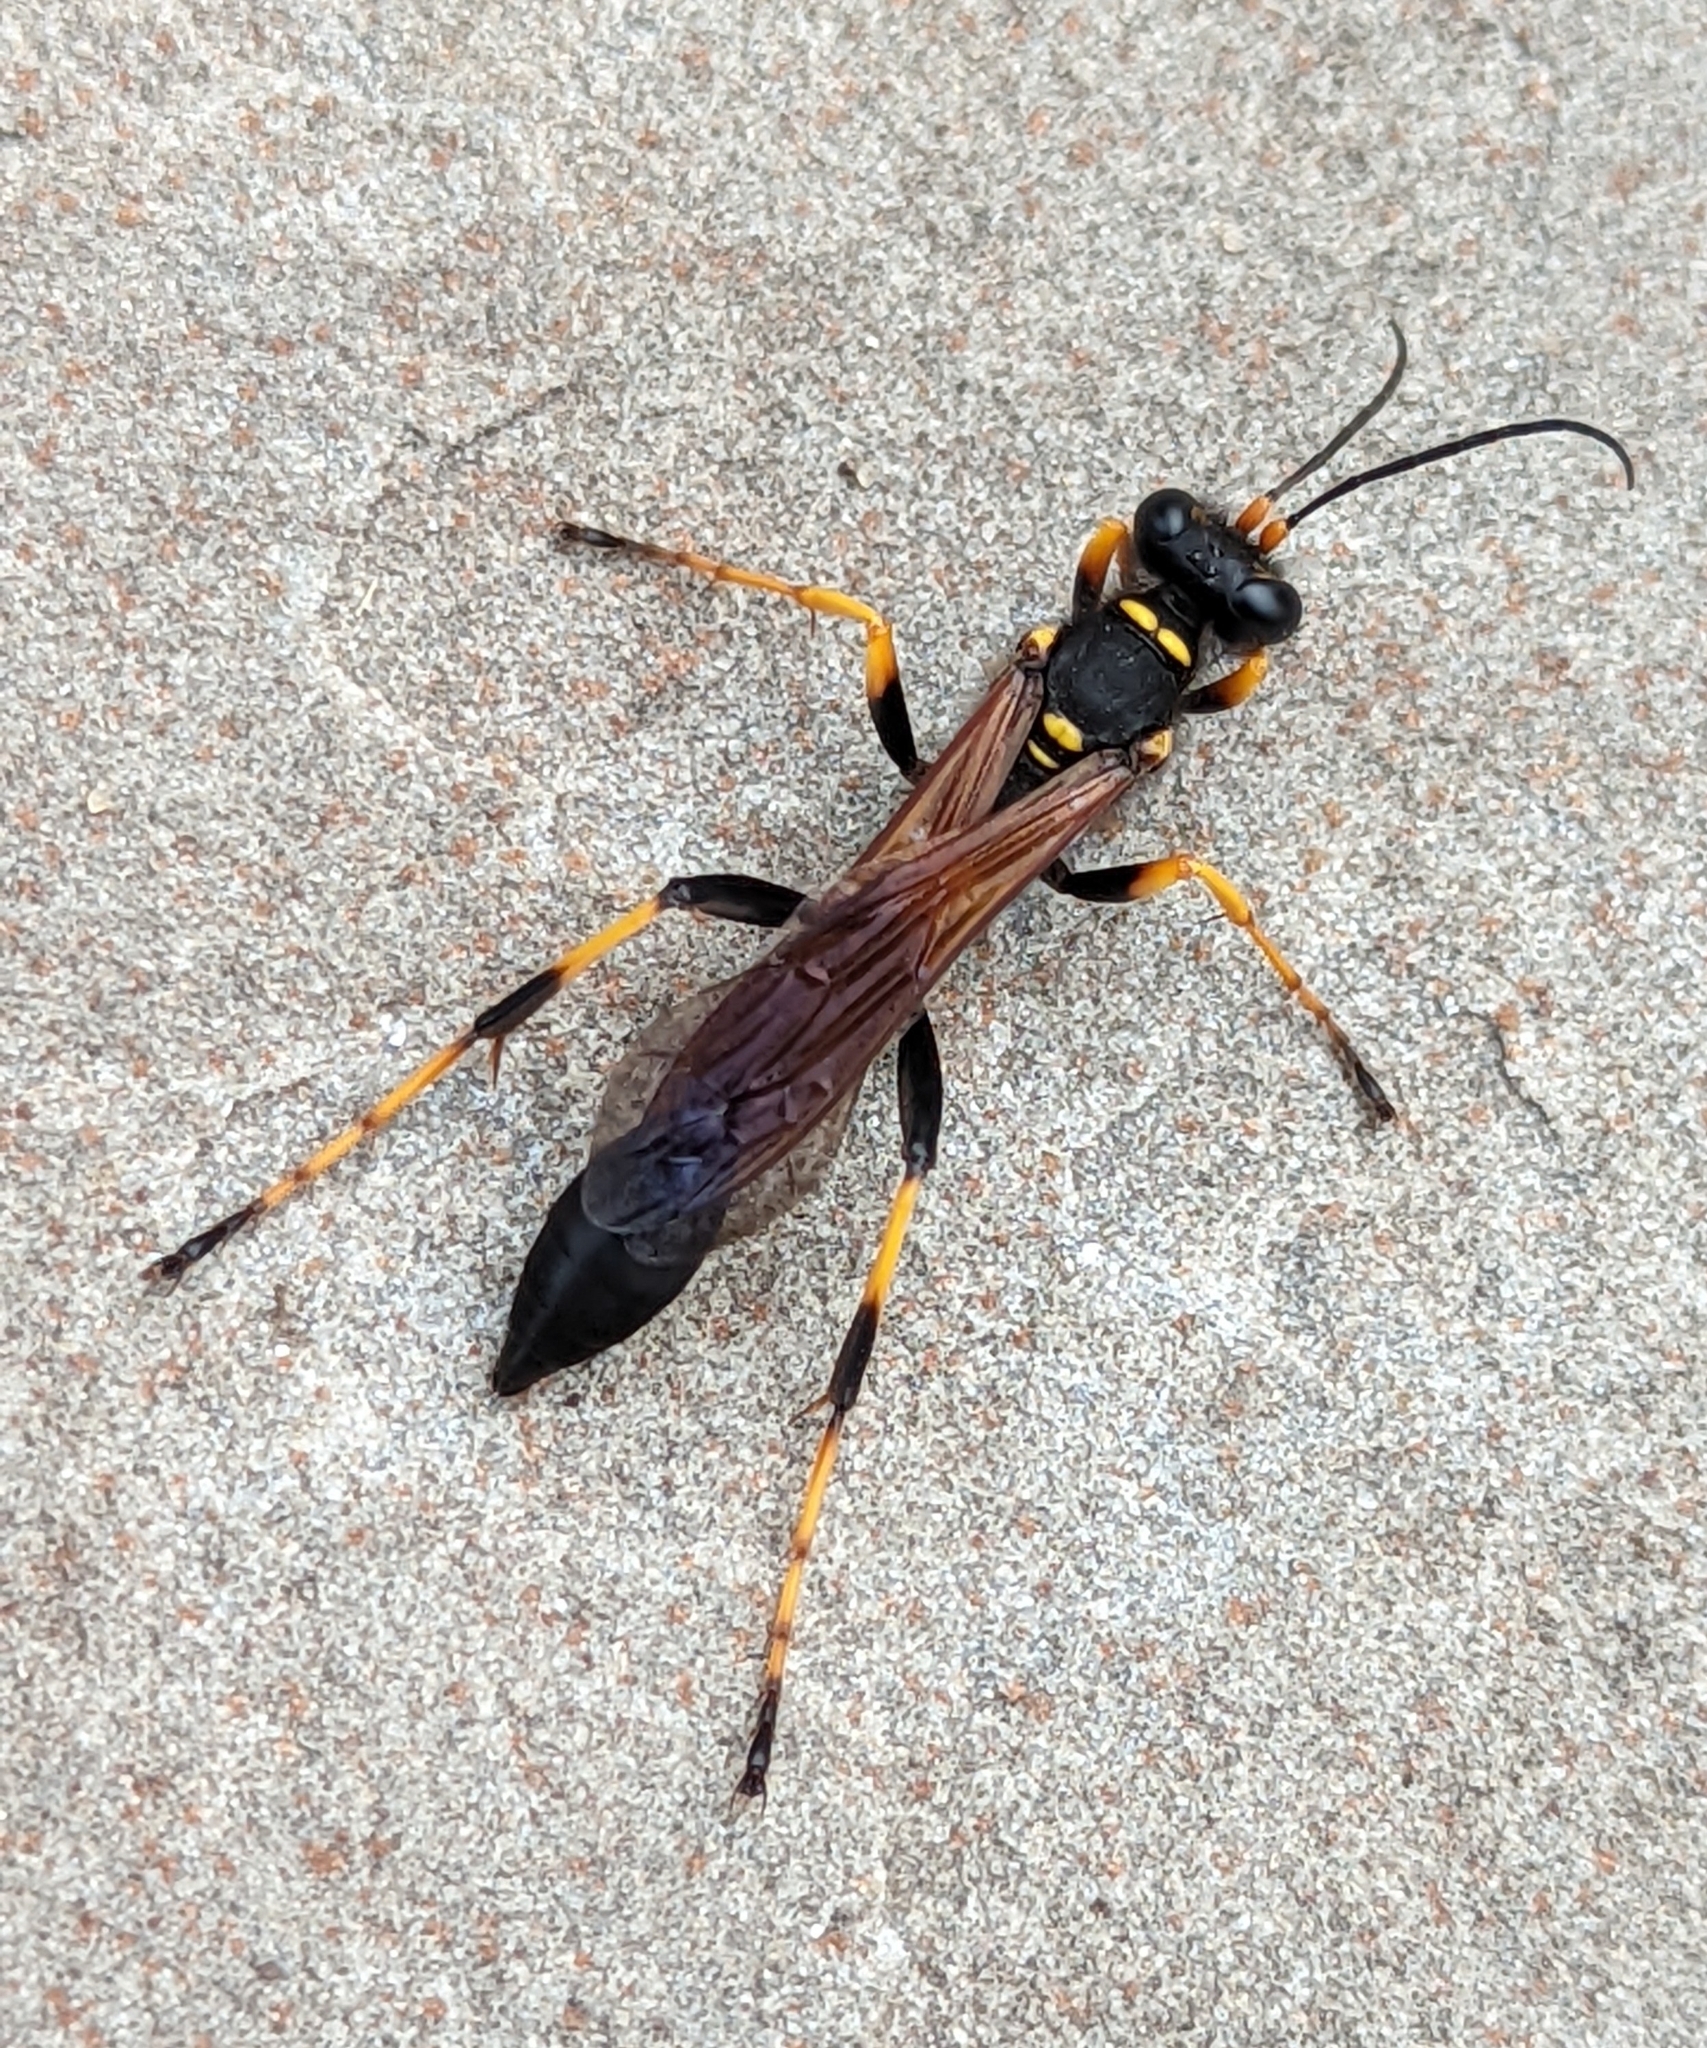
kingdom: Animalia
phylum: Arthropoda
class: Insecta
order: Hymenoptera
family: Sphecidae
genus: Sceliphron
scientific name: Sceliphron caementarium
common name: Mud dauber
